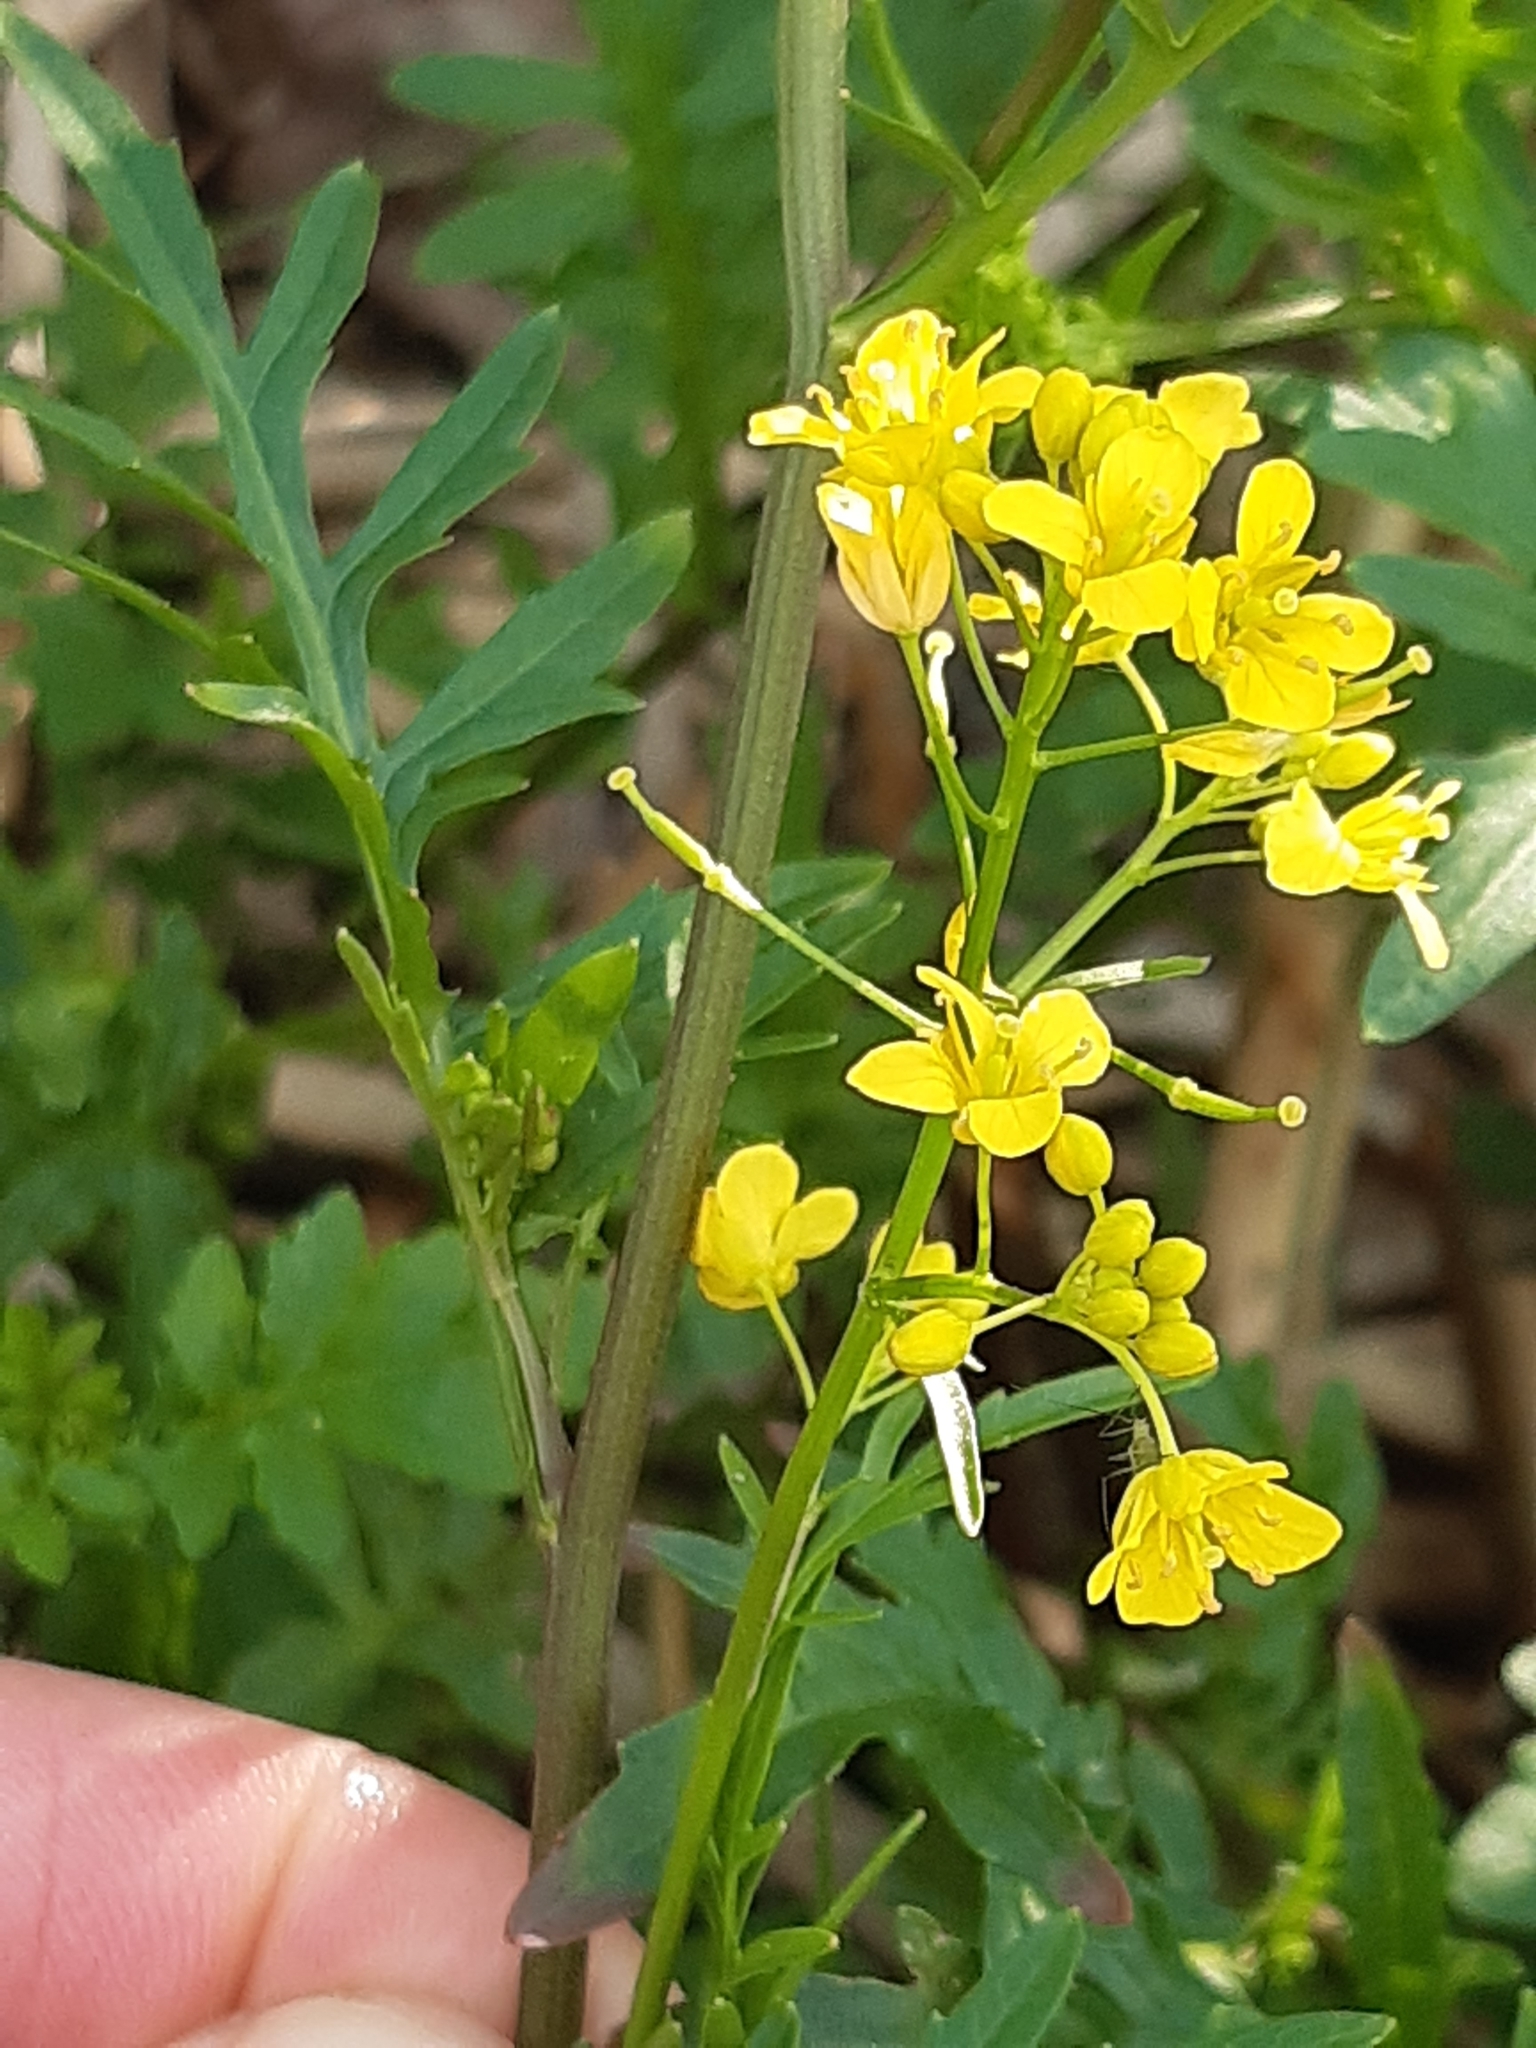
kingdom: Plantae
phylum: Tracheophyta
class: Magnoliopsida
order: Brassicales
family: Brassicaceae
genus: Rorippa
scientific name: Rorippa sylvestris
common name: Creeping yellowcress
